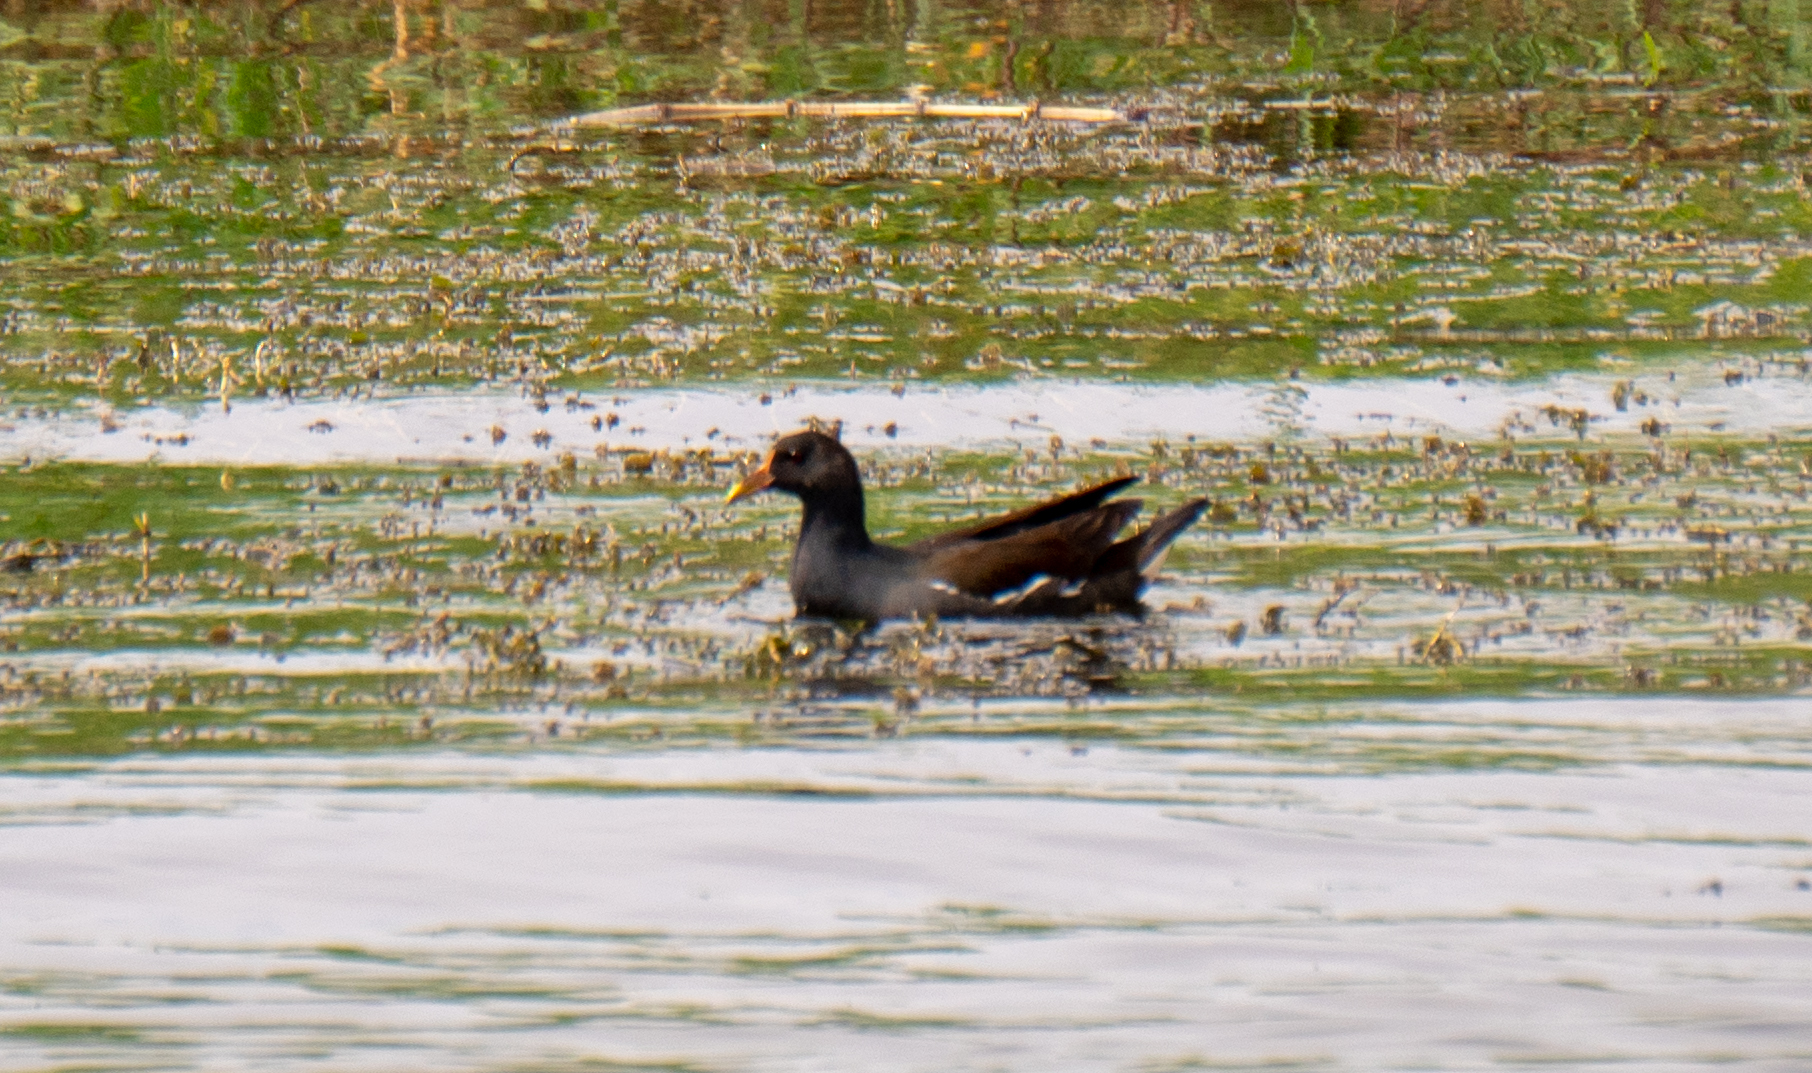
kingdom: Animalia
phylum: Chordata
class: Aves
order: Gruiformes
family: Rallidae
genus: Gallinula
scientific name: Gallinula chloropus
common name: Common moorhen
